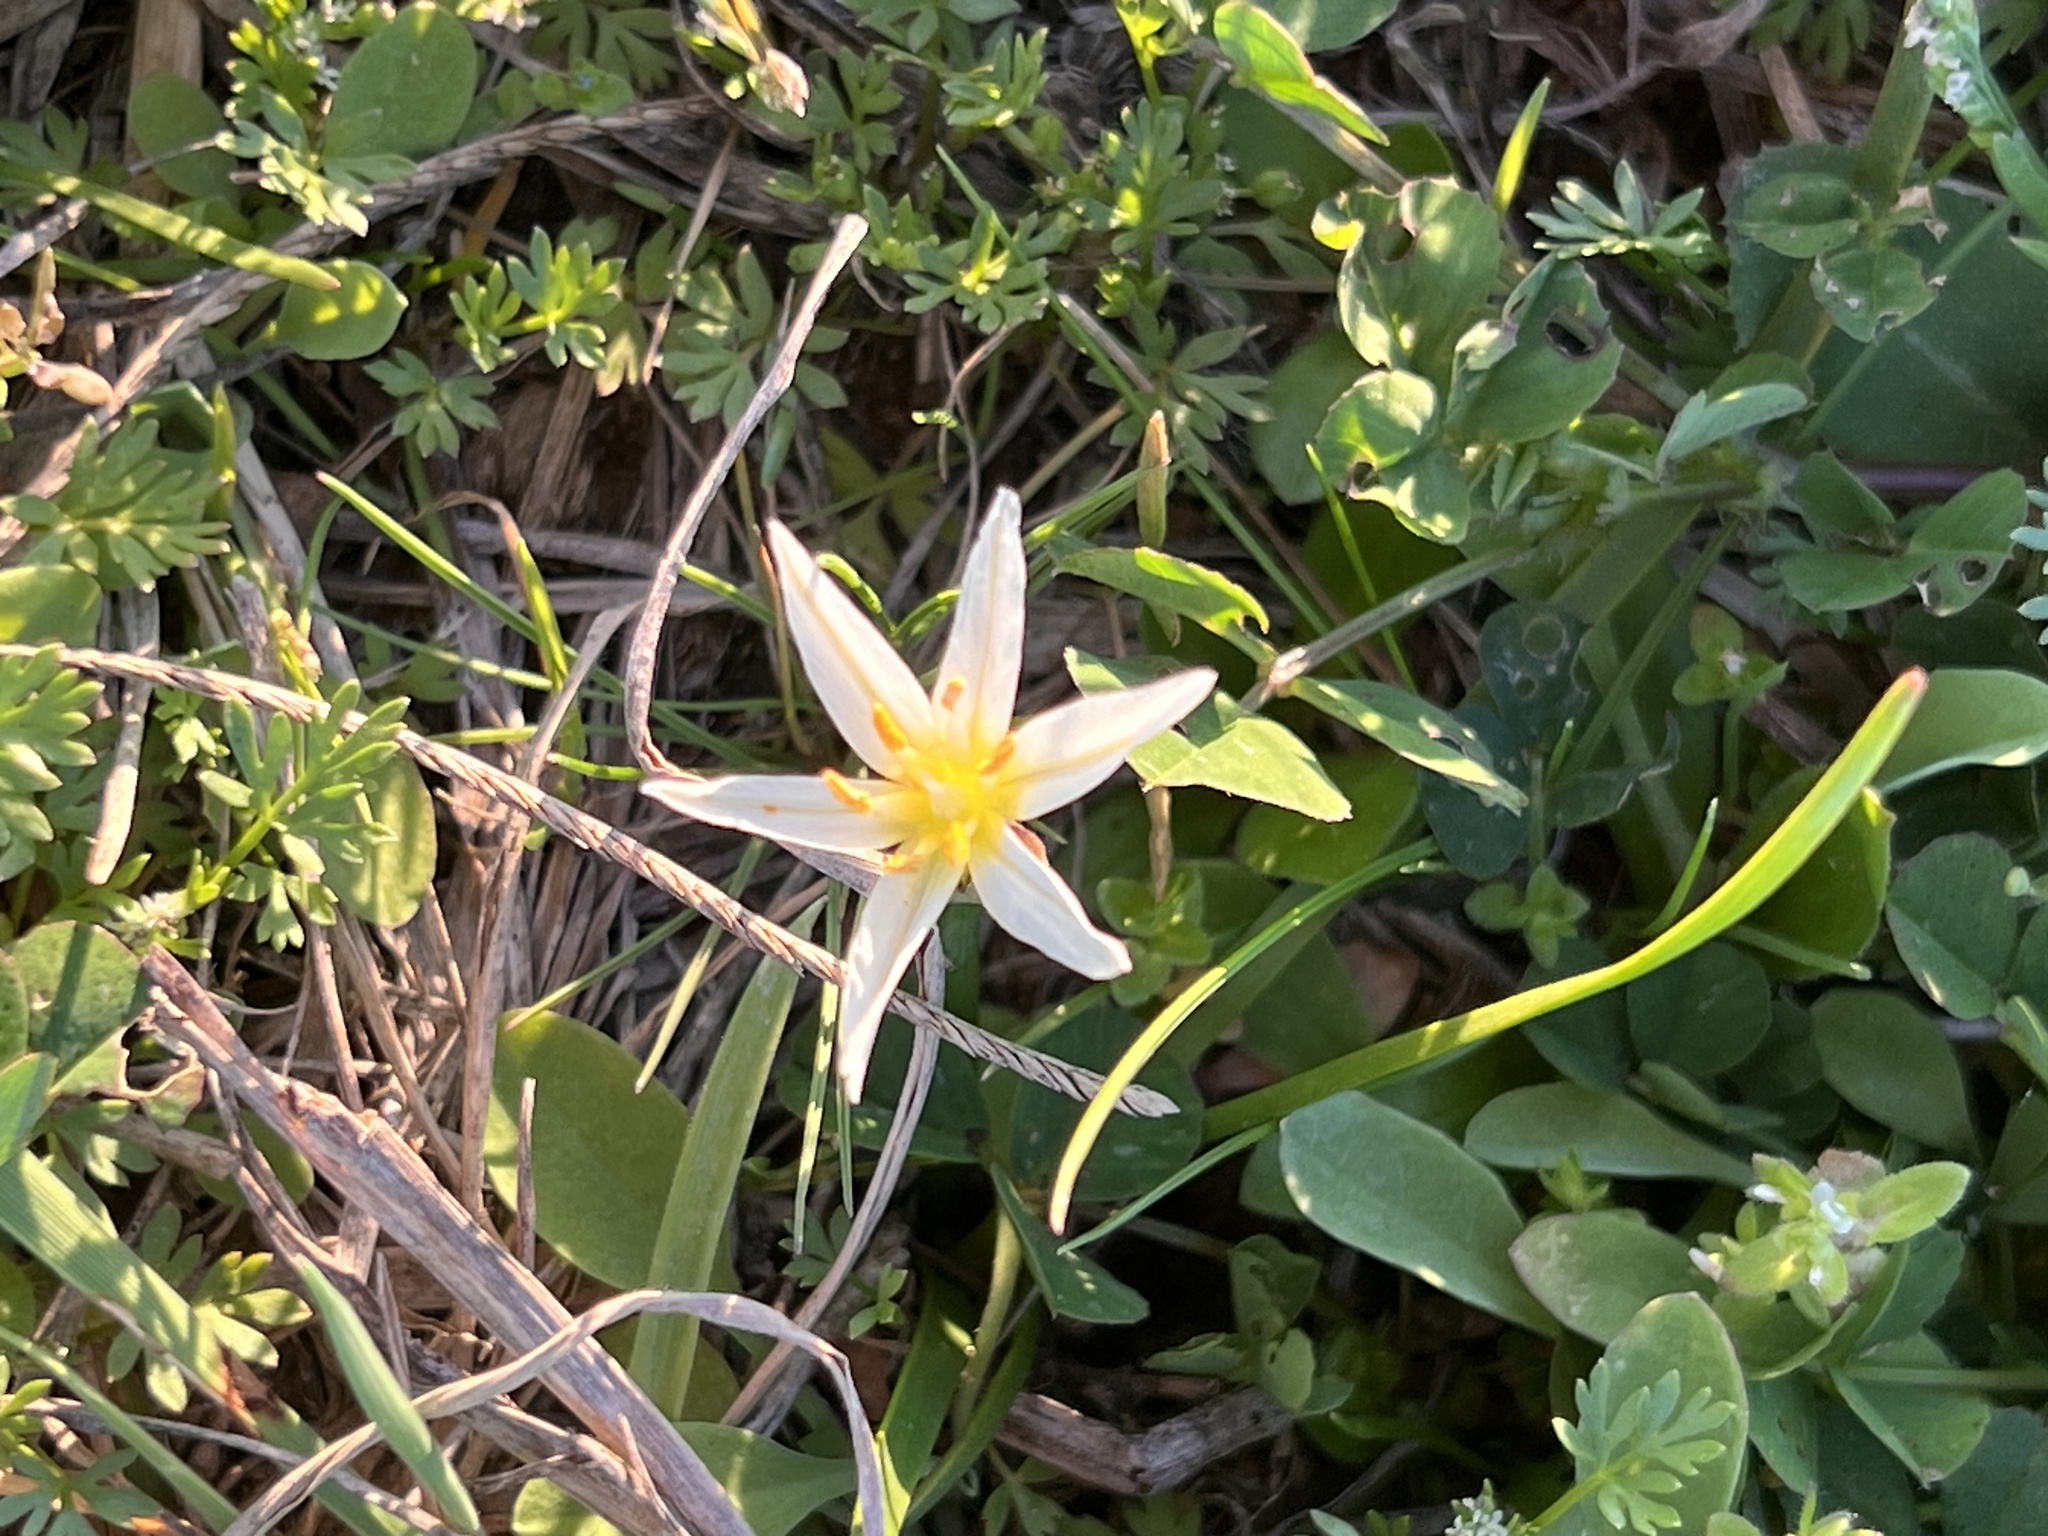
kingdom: Plantae
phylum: Tracheophyta
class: Liliopsida
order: Asparagales
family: Amaryllidaceae
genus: Nothoscordum
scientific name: Nothoscordum bivalve
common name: Crow-poison
